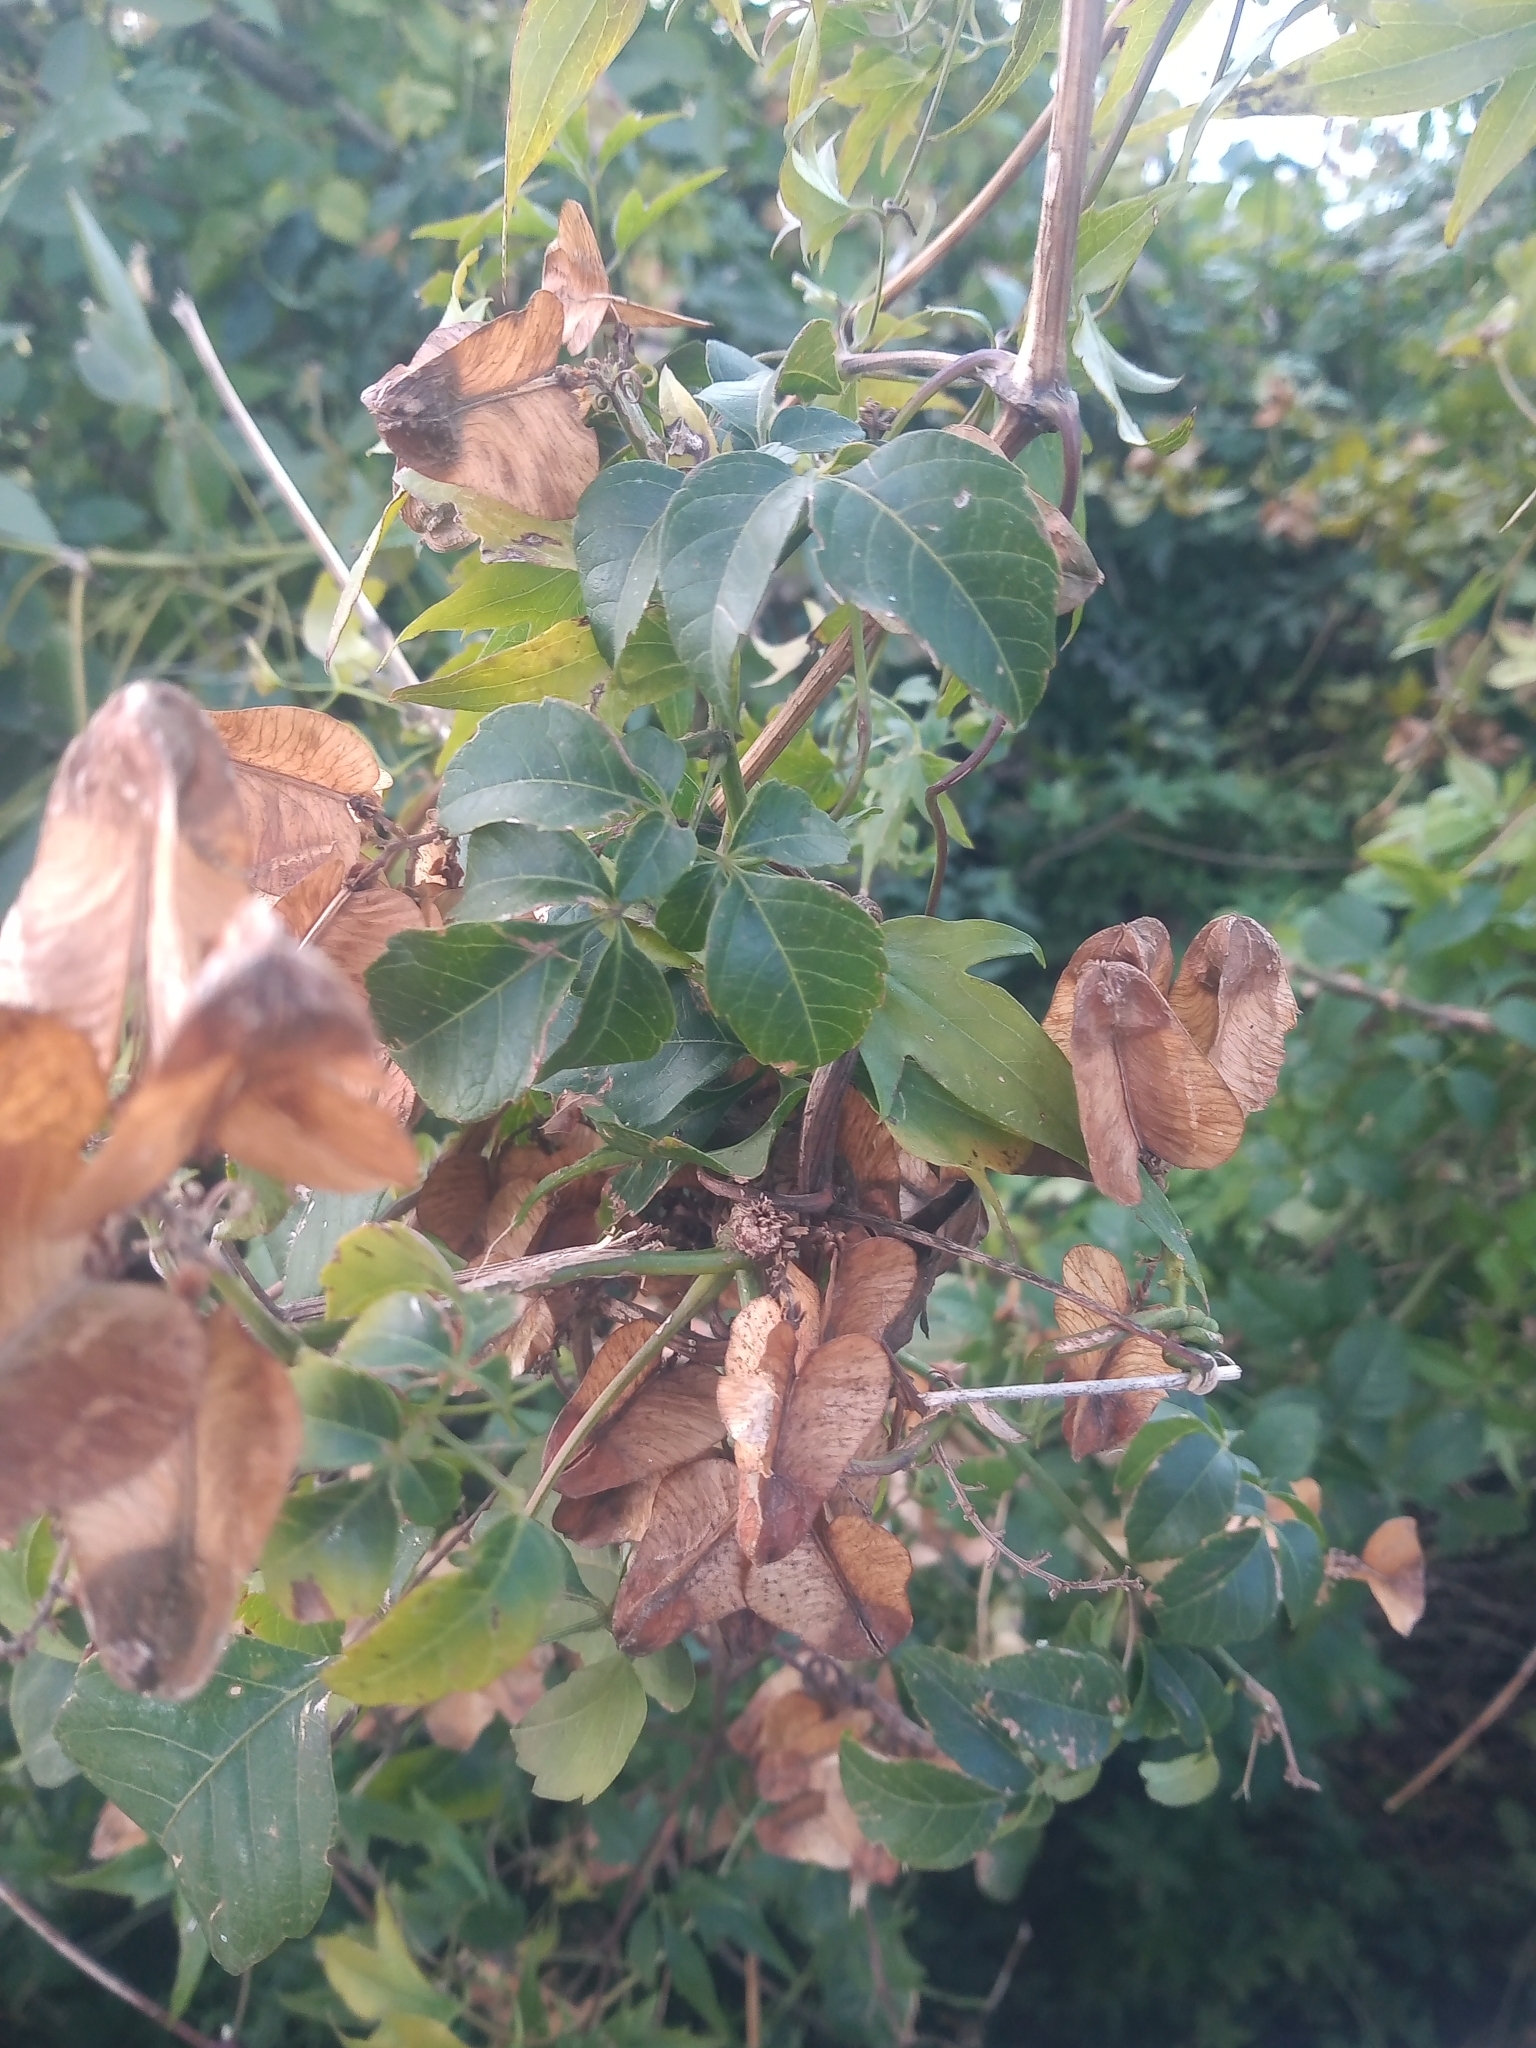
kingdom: Plantae
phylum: Tracheophyta
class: Magnoliopsida
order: Sapindales
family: Sapindaceae
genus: Serjania
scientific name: Serjania meridionalis
